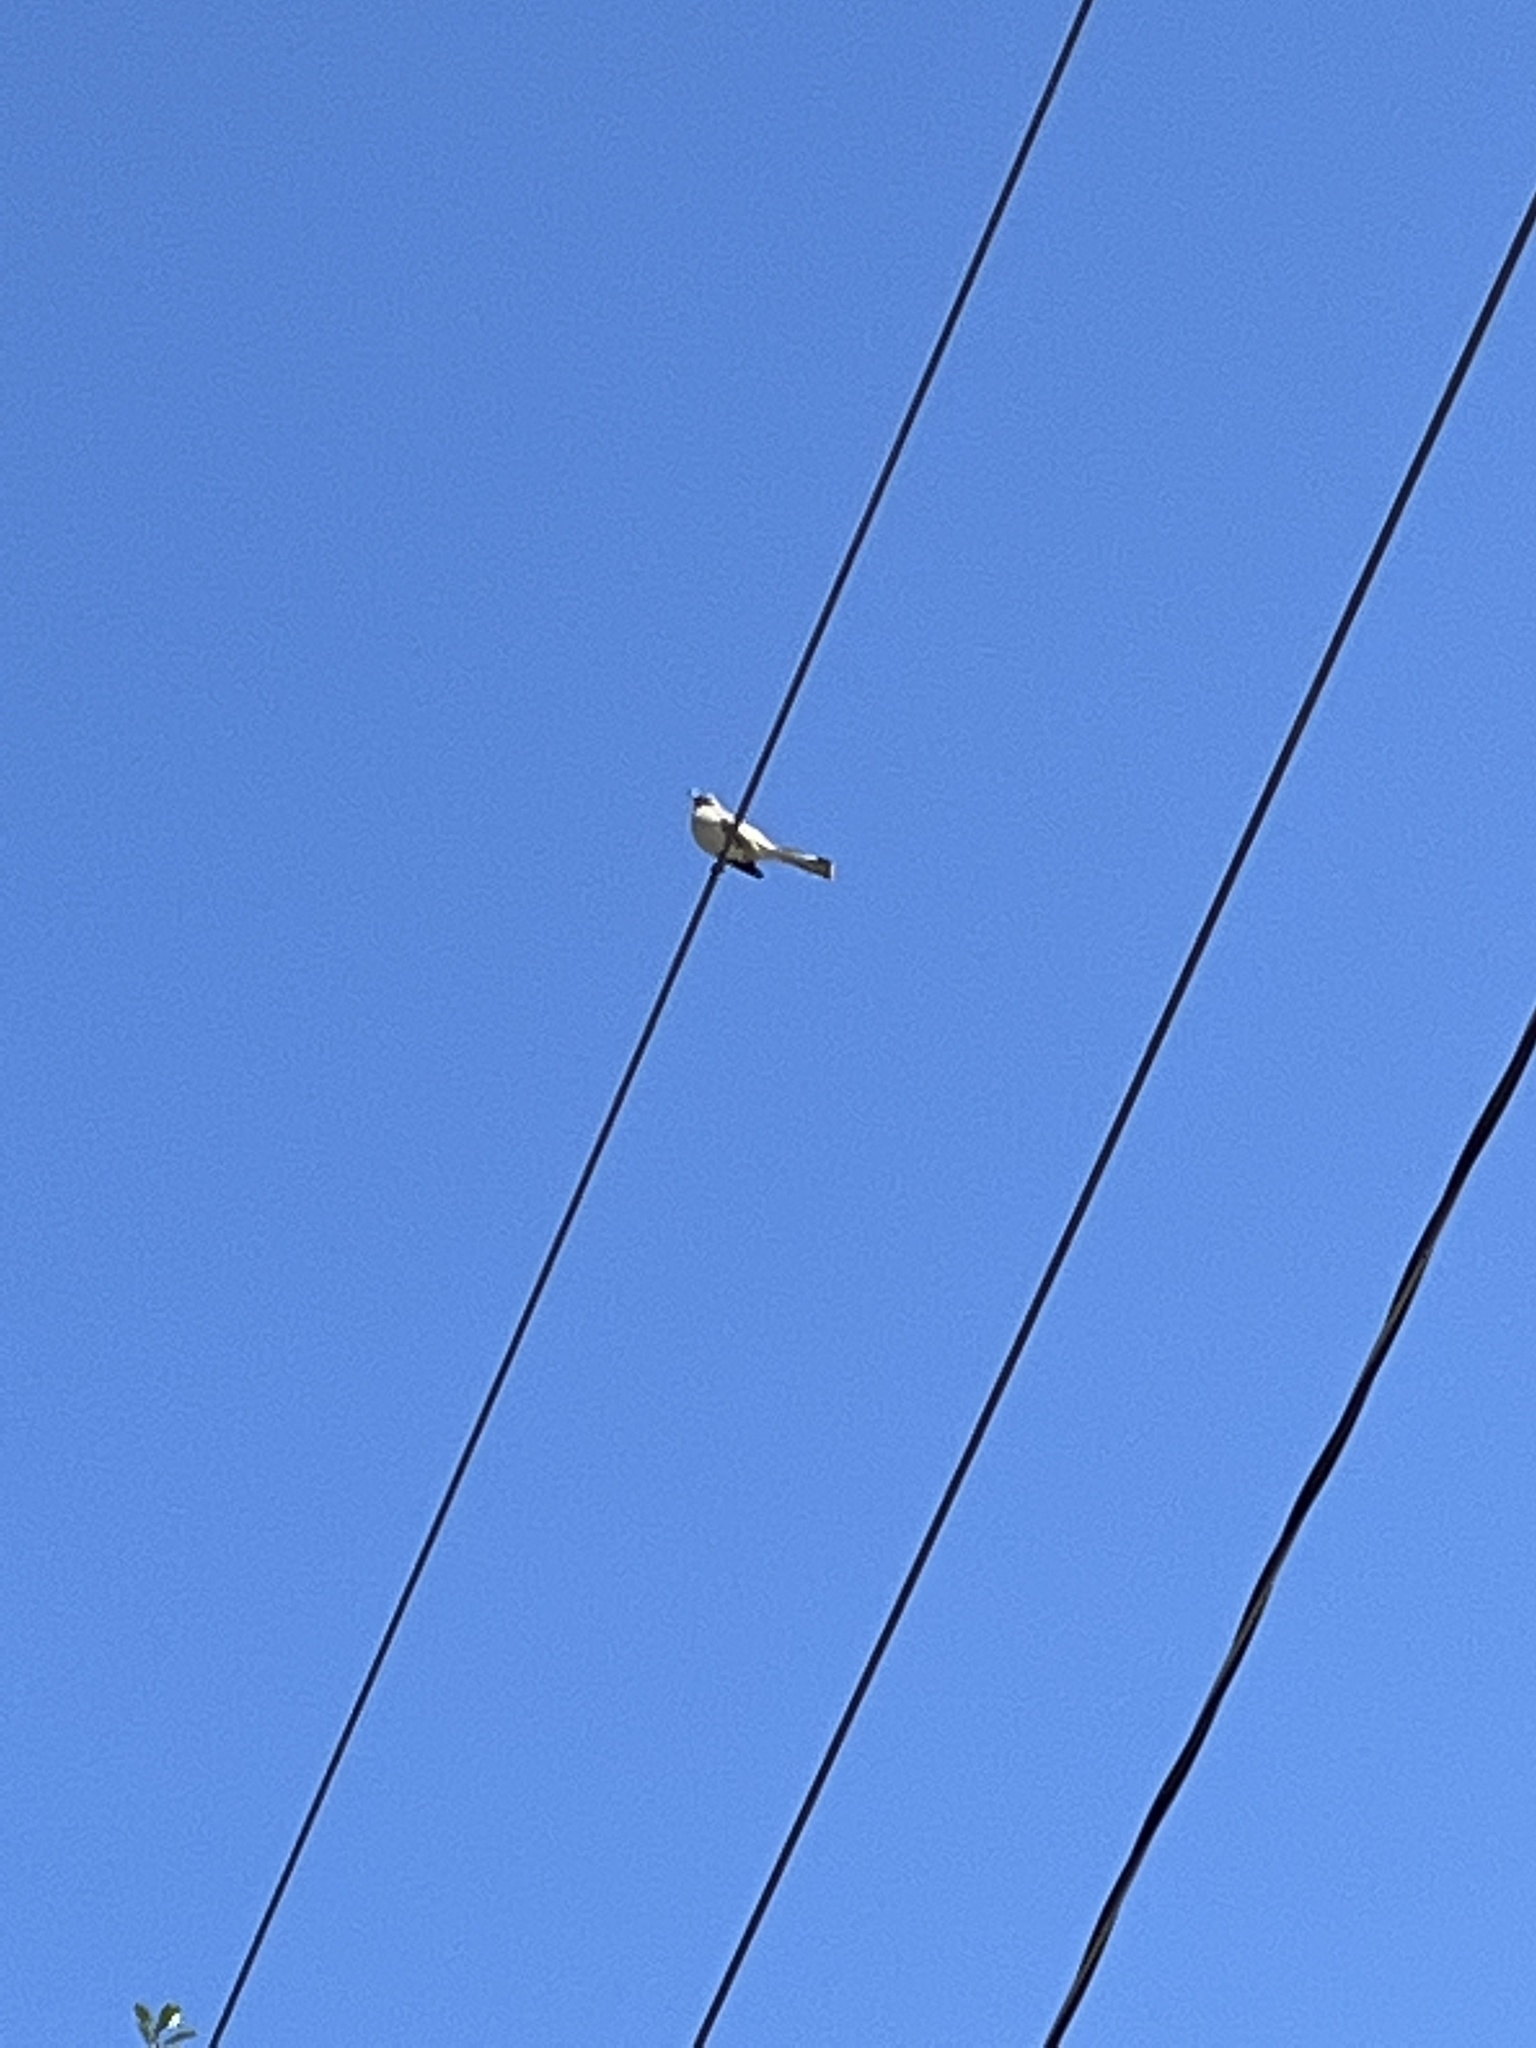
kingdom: Animalia
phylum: Chordata
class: Aves
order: Passeriformes
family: Mimidae
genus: Mimus
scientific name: Mimus polyglottos
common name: Northern mockingbird
